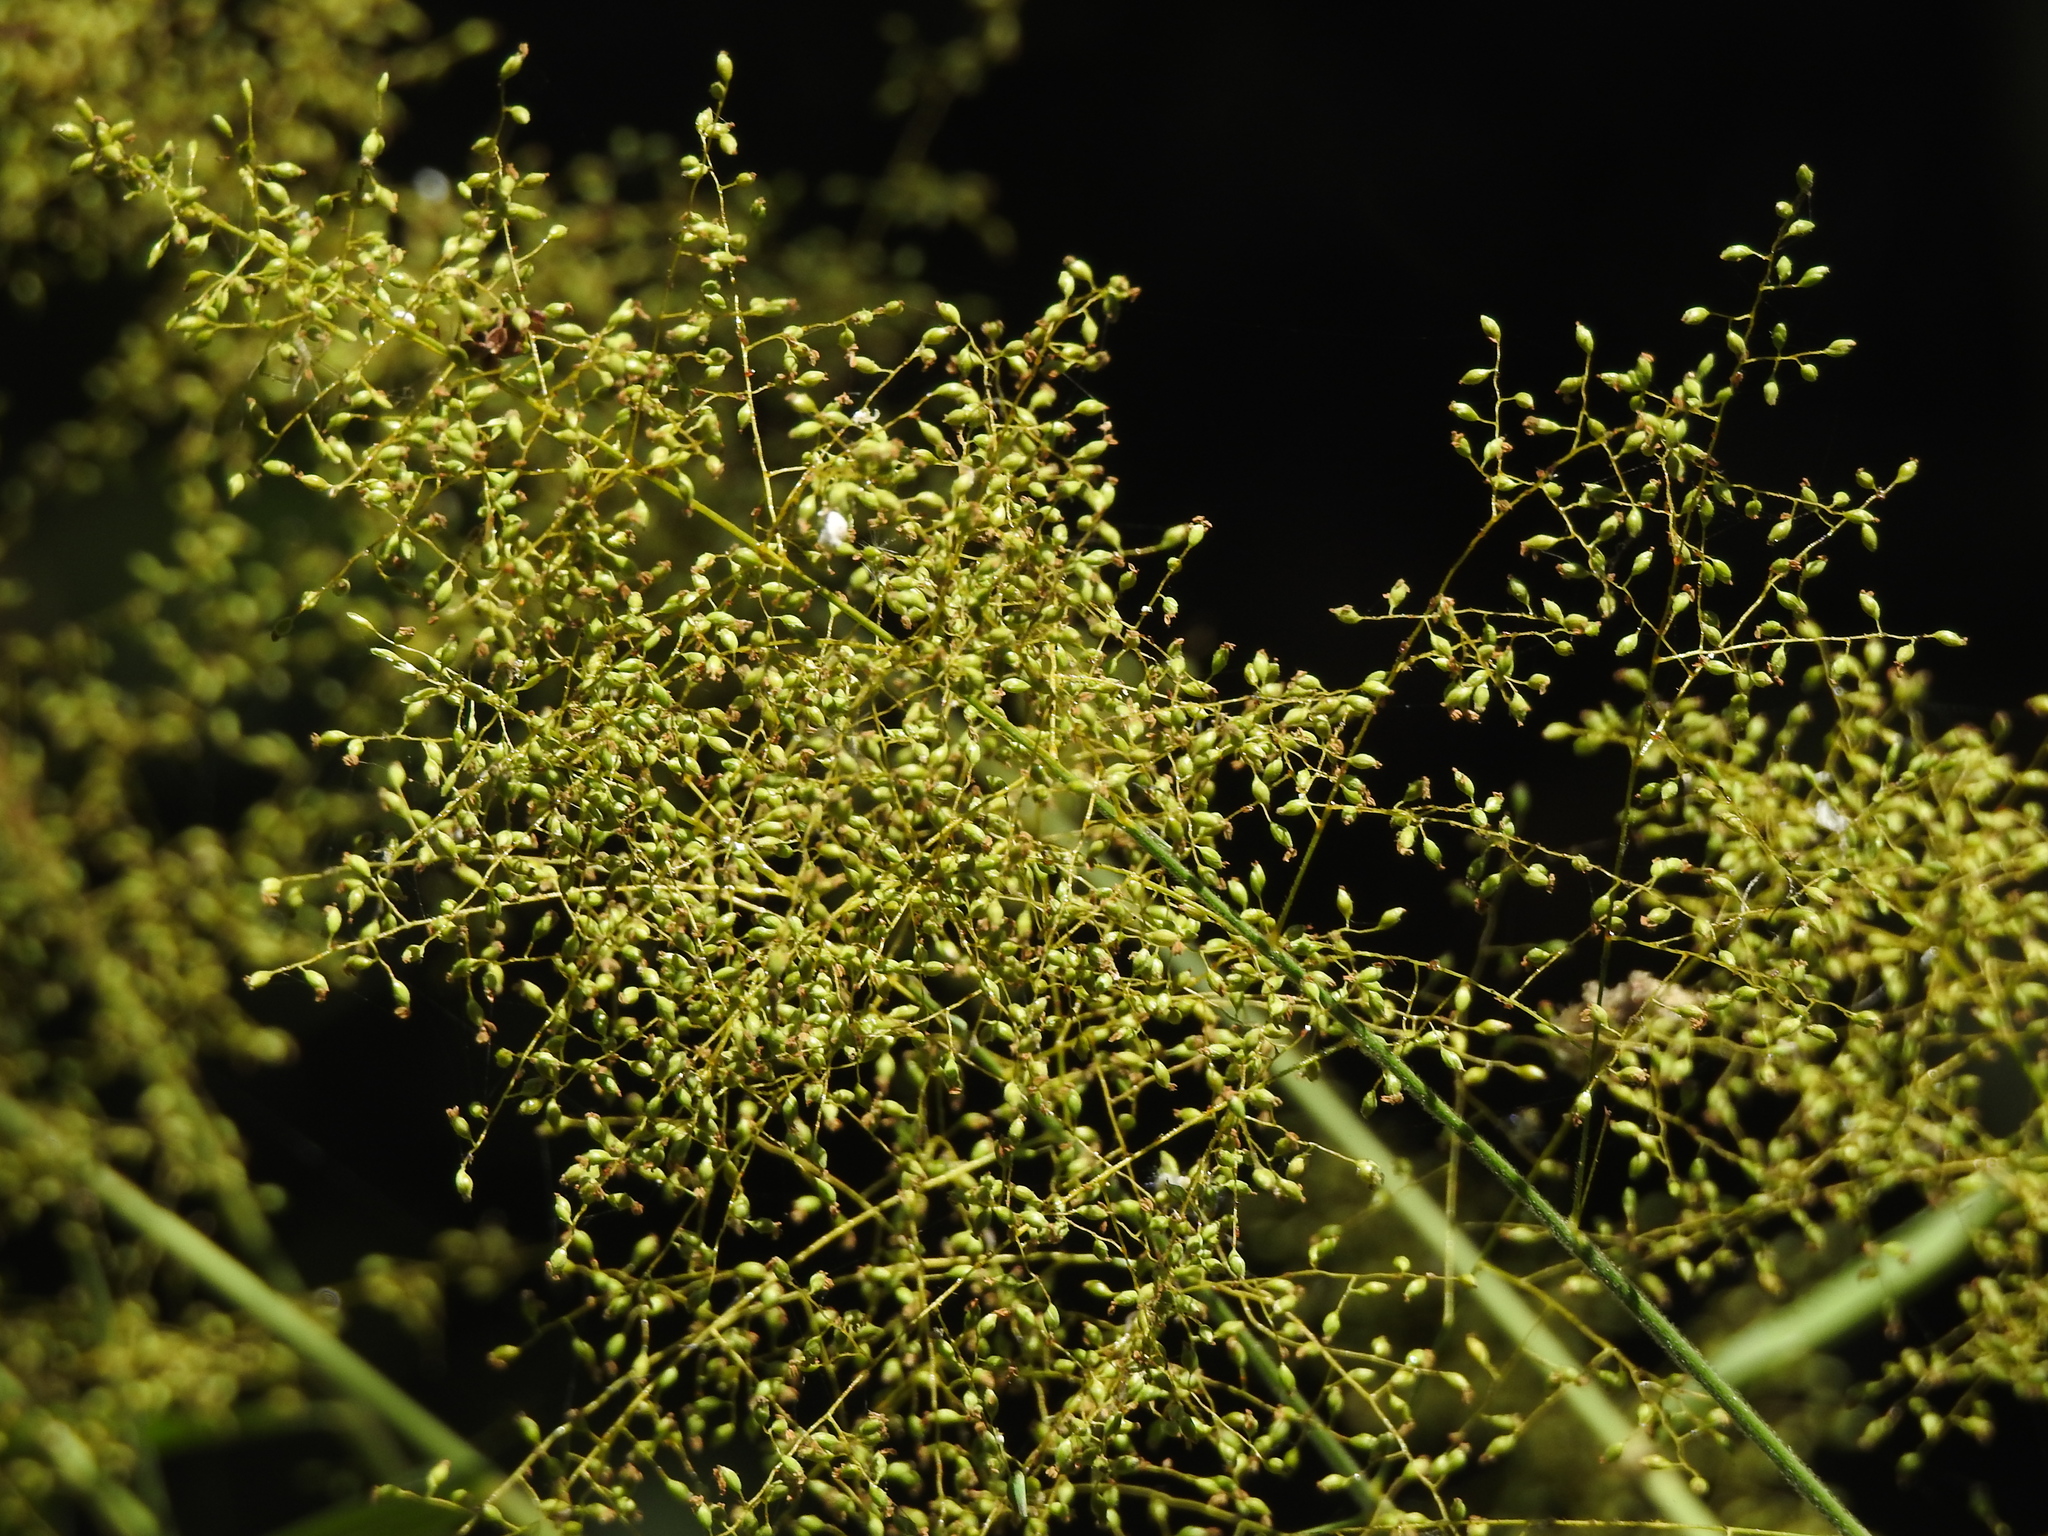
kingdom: Plantae
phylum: Tracheophyta
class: Liliopsida
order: Poales
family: Poaceae
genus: Panicum
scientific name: Panicum sarmentosum
